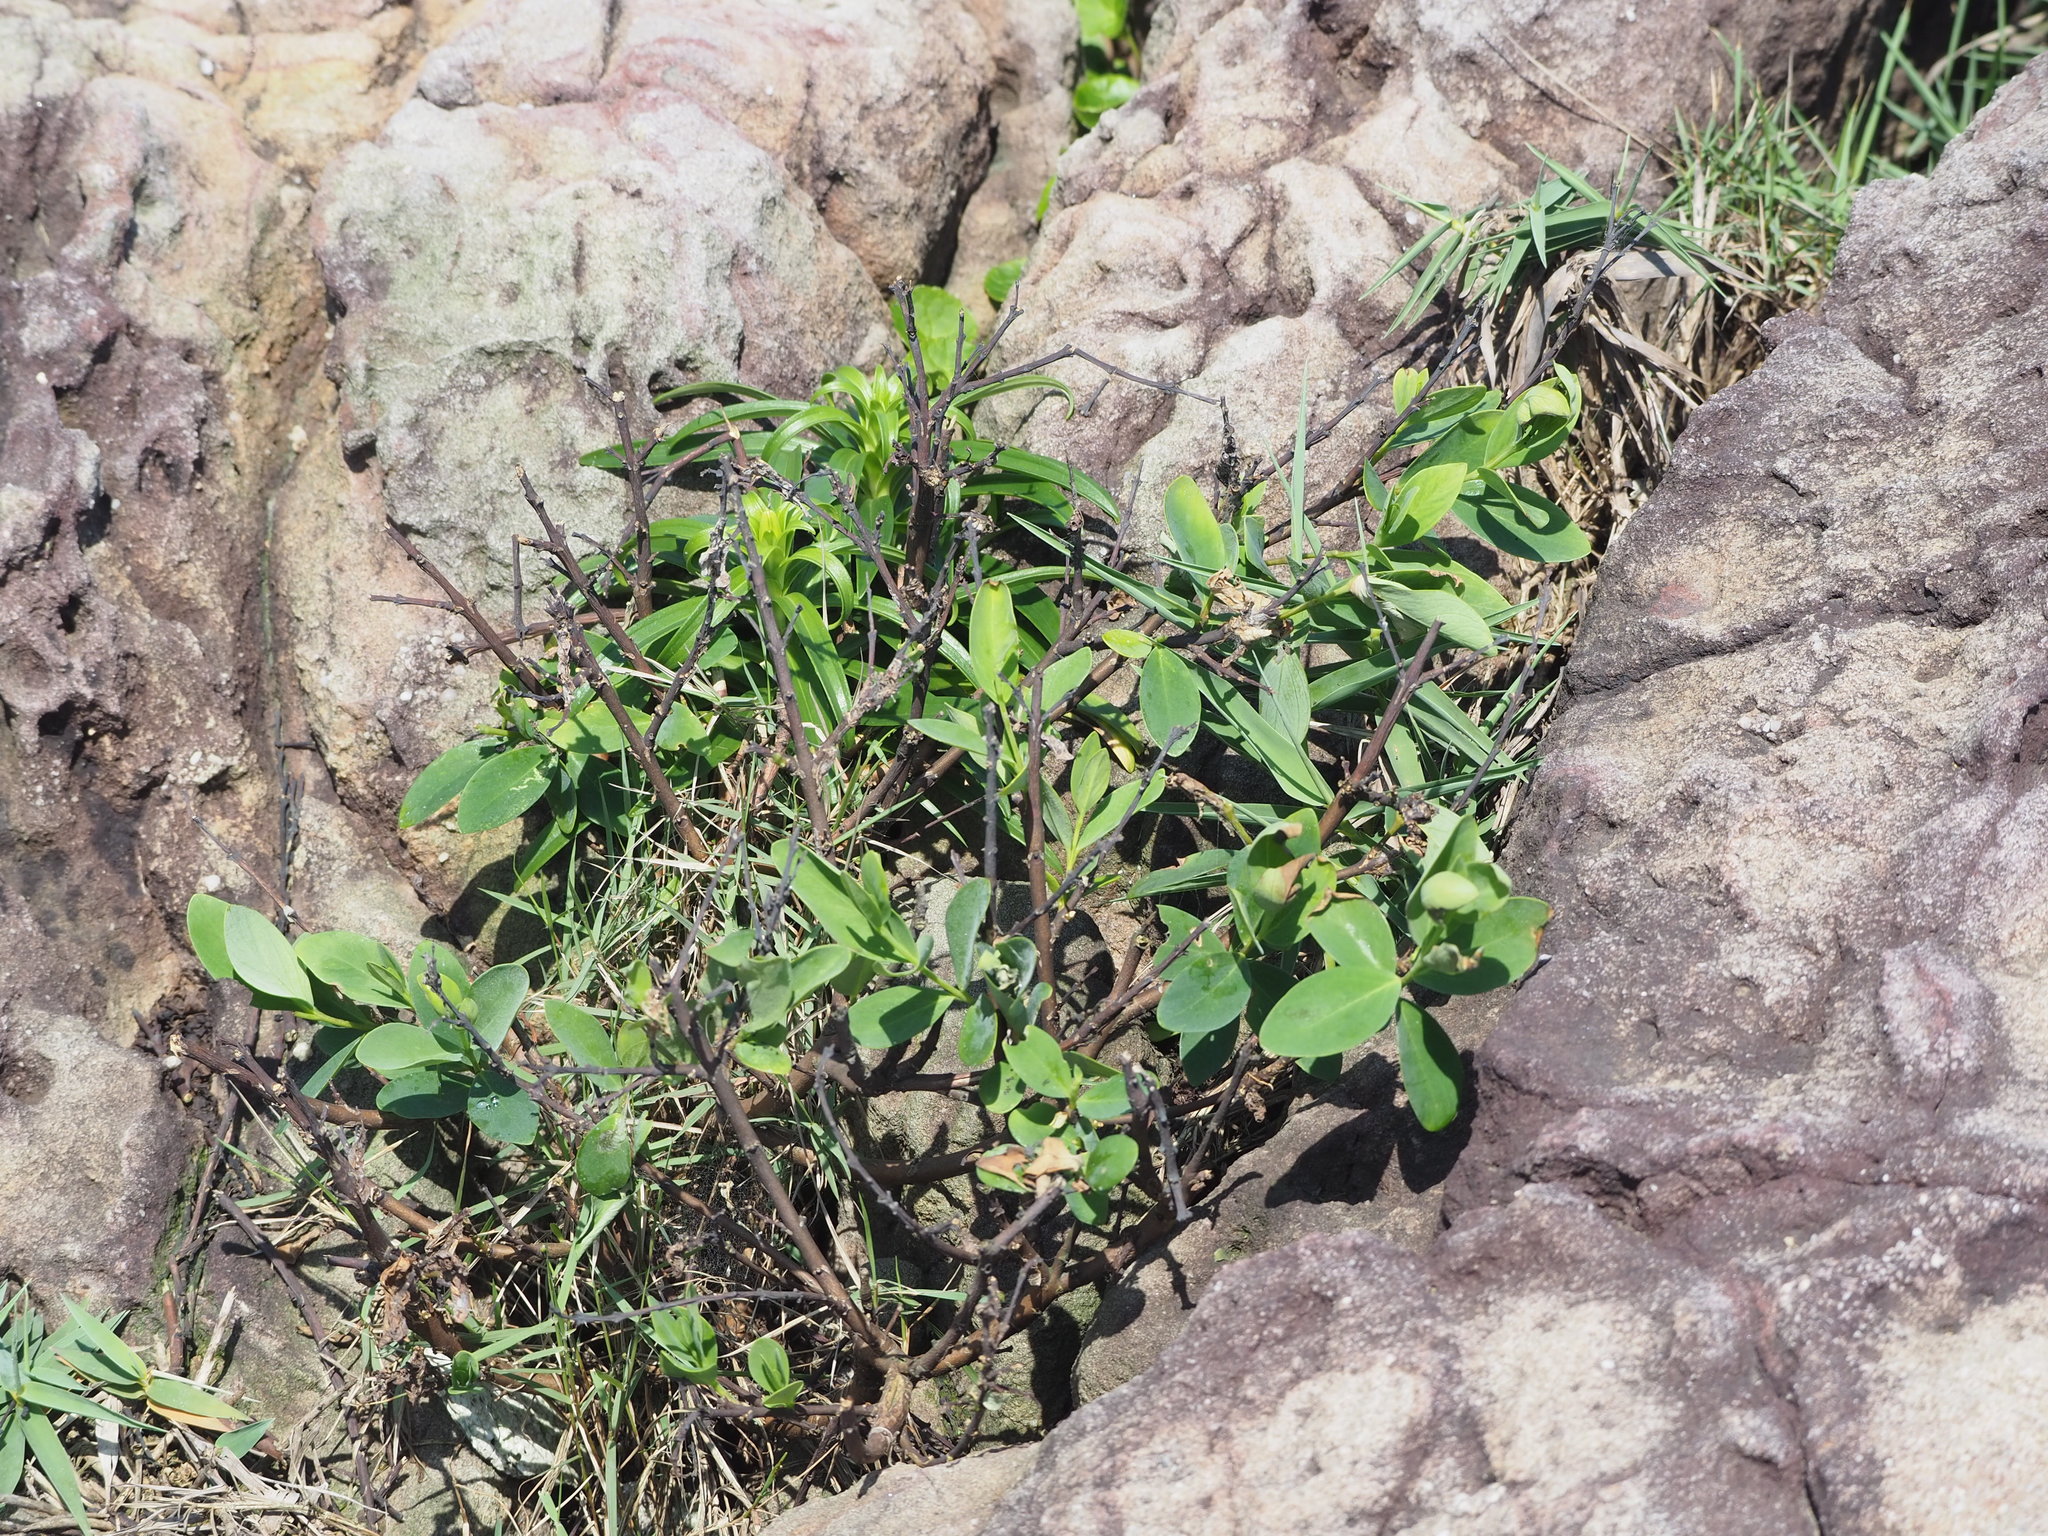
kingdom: Plantae
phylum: Tracheophyta
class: Magnoliopsida
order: Malvales
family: Thymelaeaceae
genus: Wikstroemia
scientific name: Wikstroemia indica
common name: Tiebush
